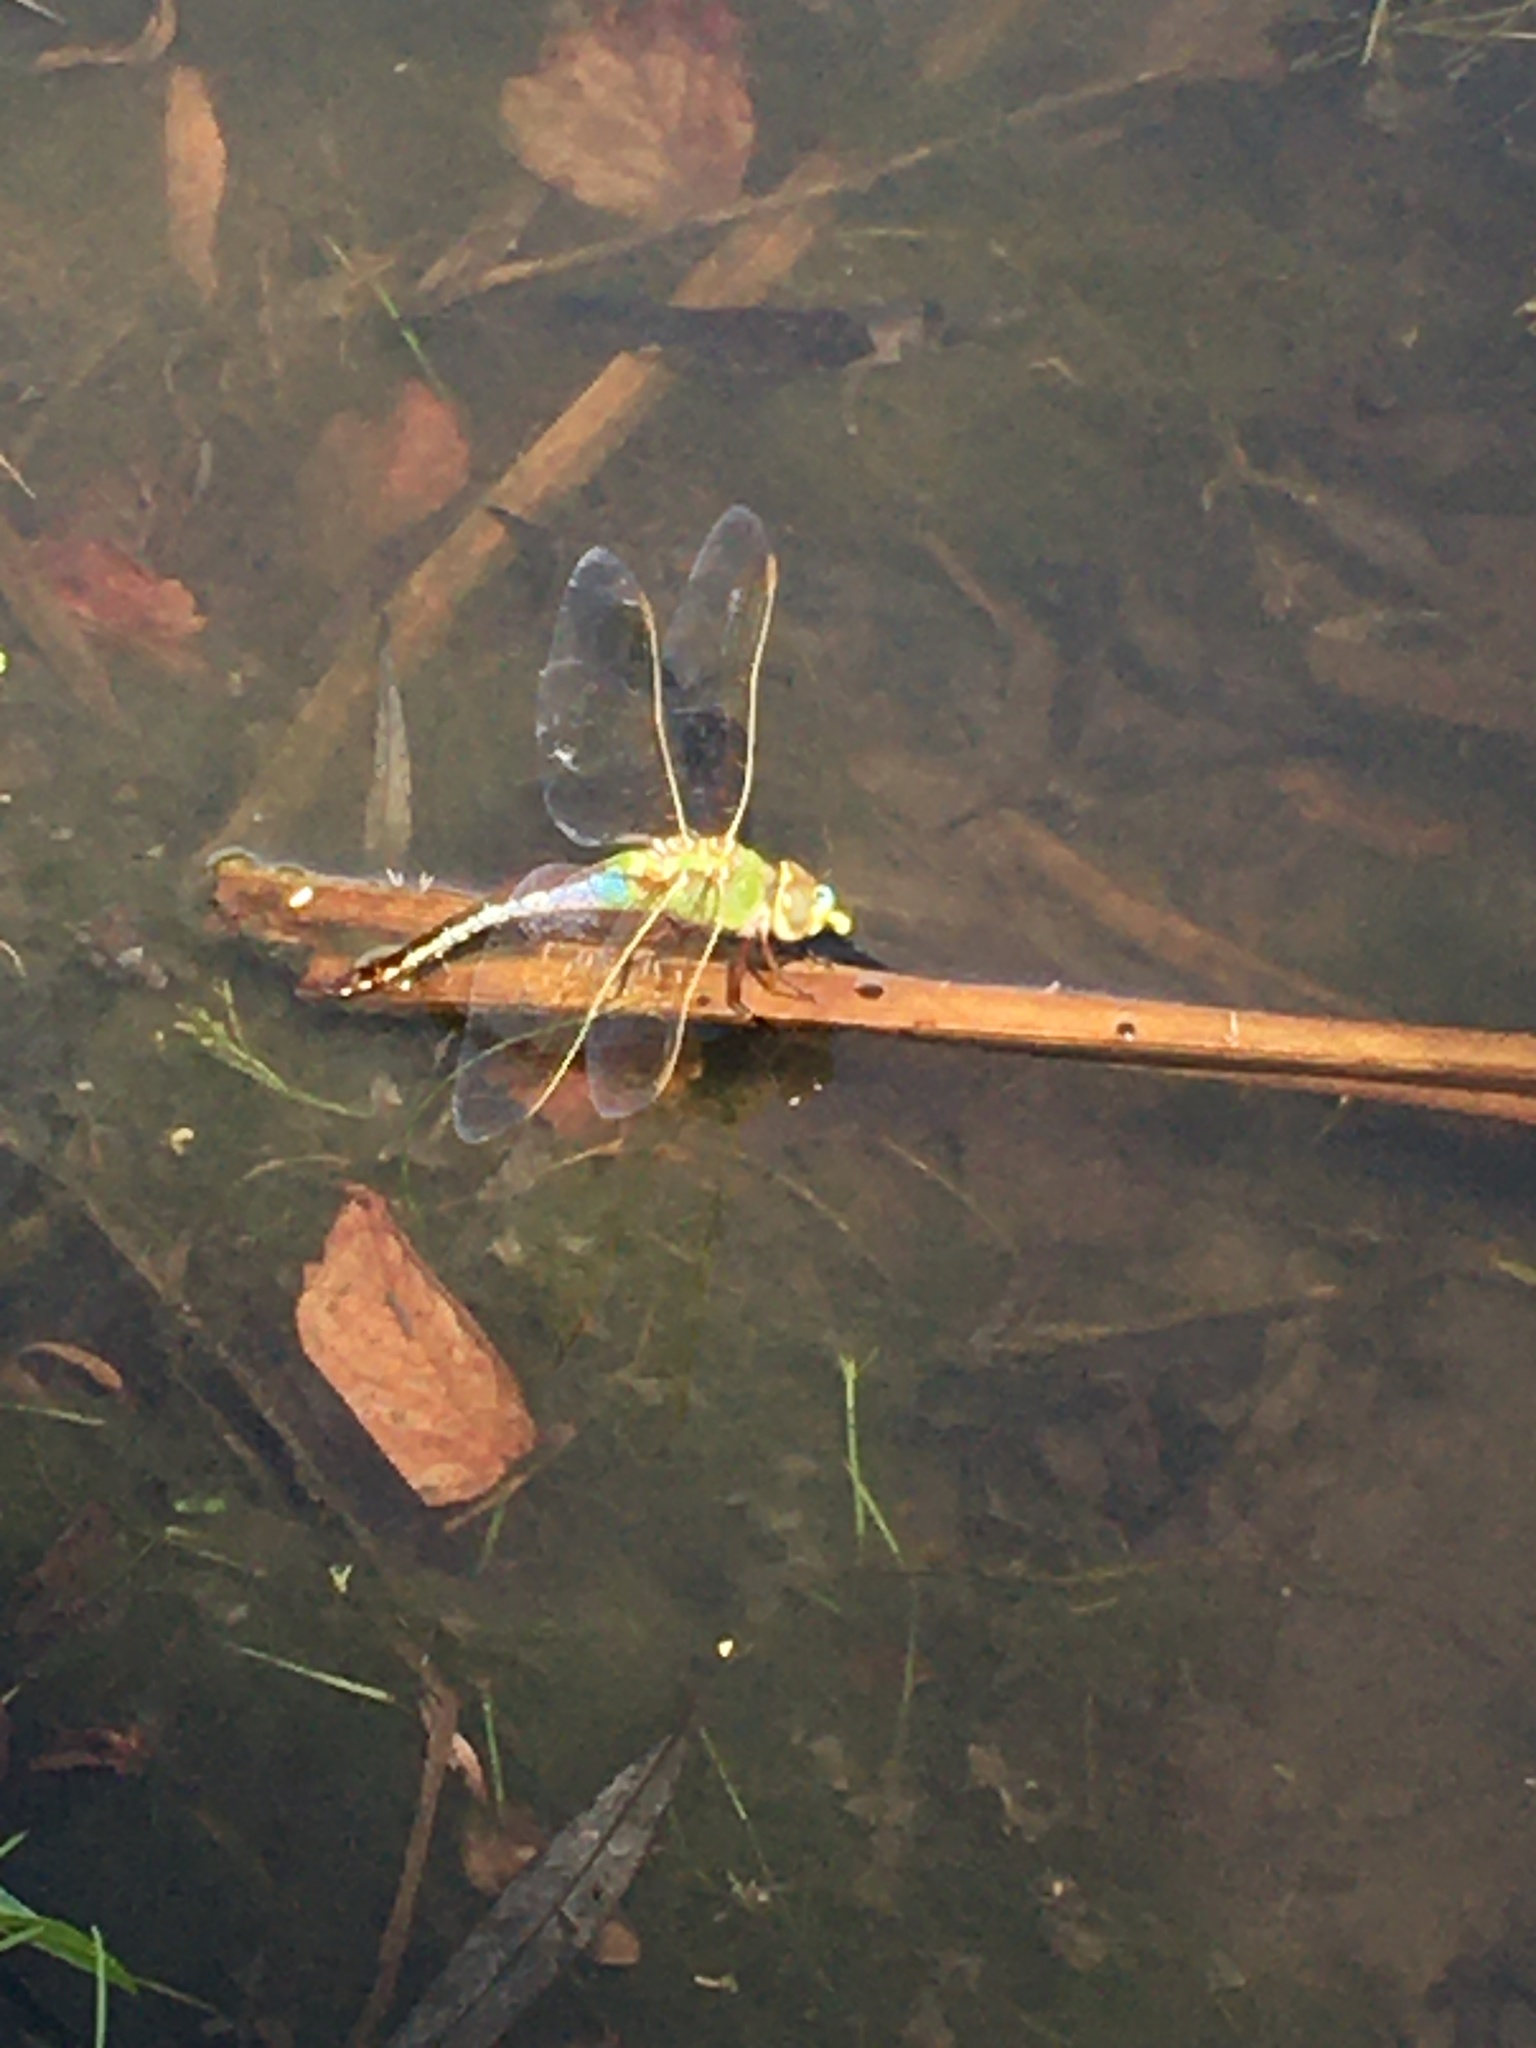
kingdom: Animalia
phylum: Arthropoda
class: Insecta
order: Odonata
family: Aeshnidae
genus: Anax
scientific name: Anax junius
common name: Common green darner
